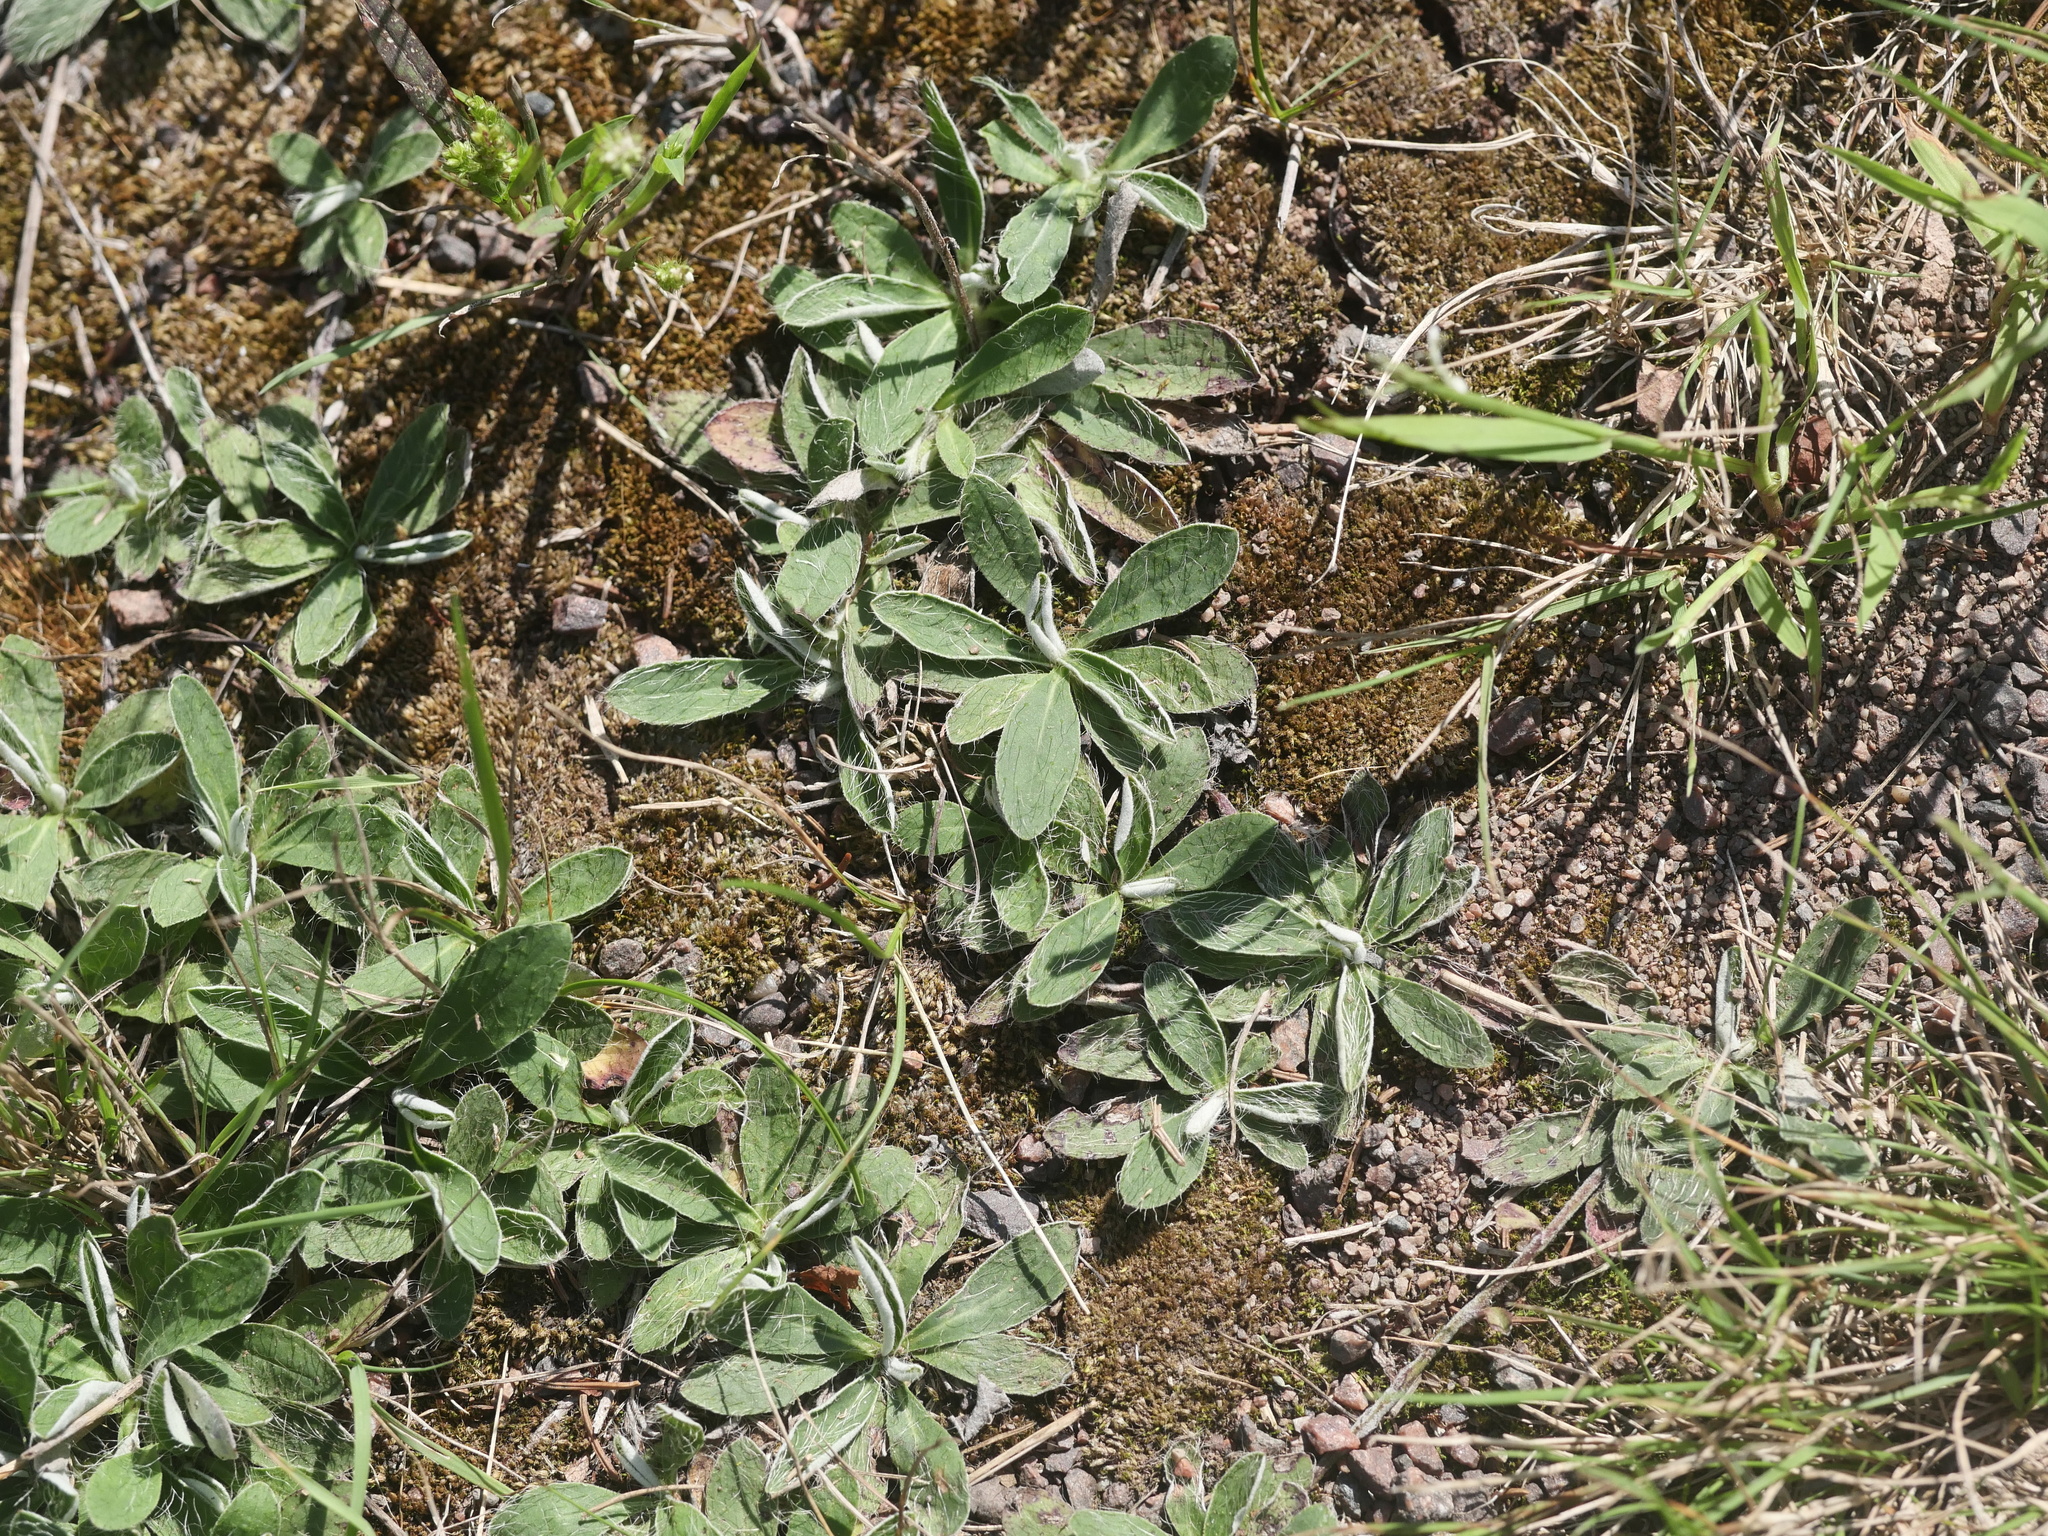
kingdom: Plantae
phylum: Tracheophyta
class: Magnoliopsida
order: Asterales
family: Asteraceae
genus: Pilosella
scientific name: Pilosella officinarum
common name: Mouse-ear hawkweed
